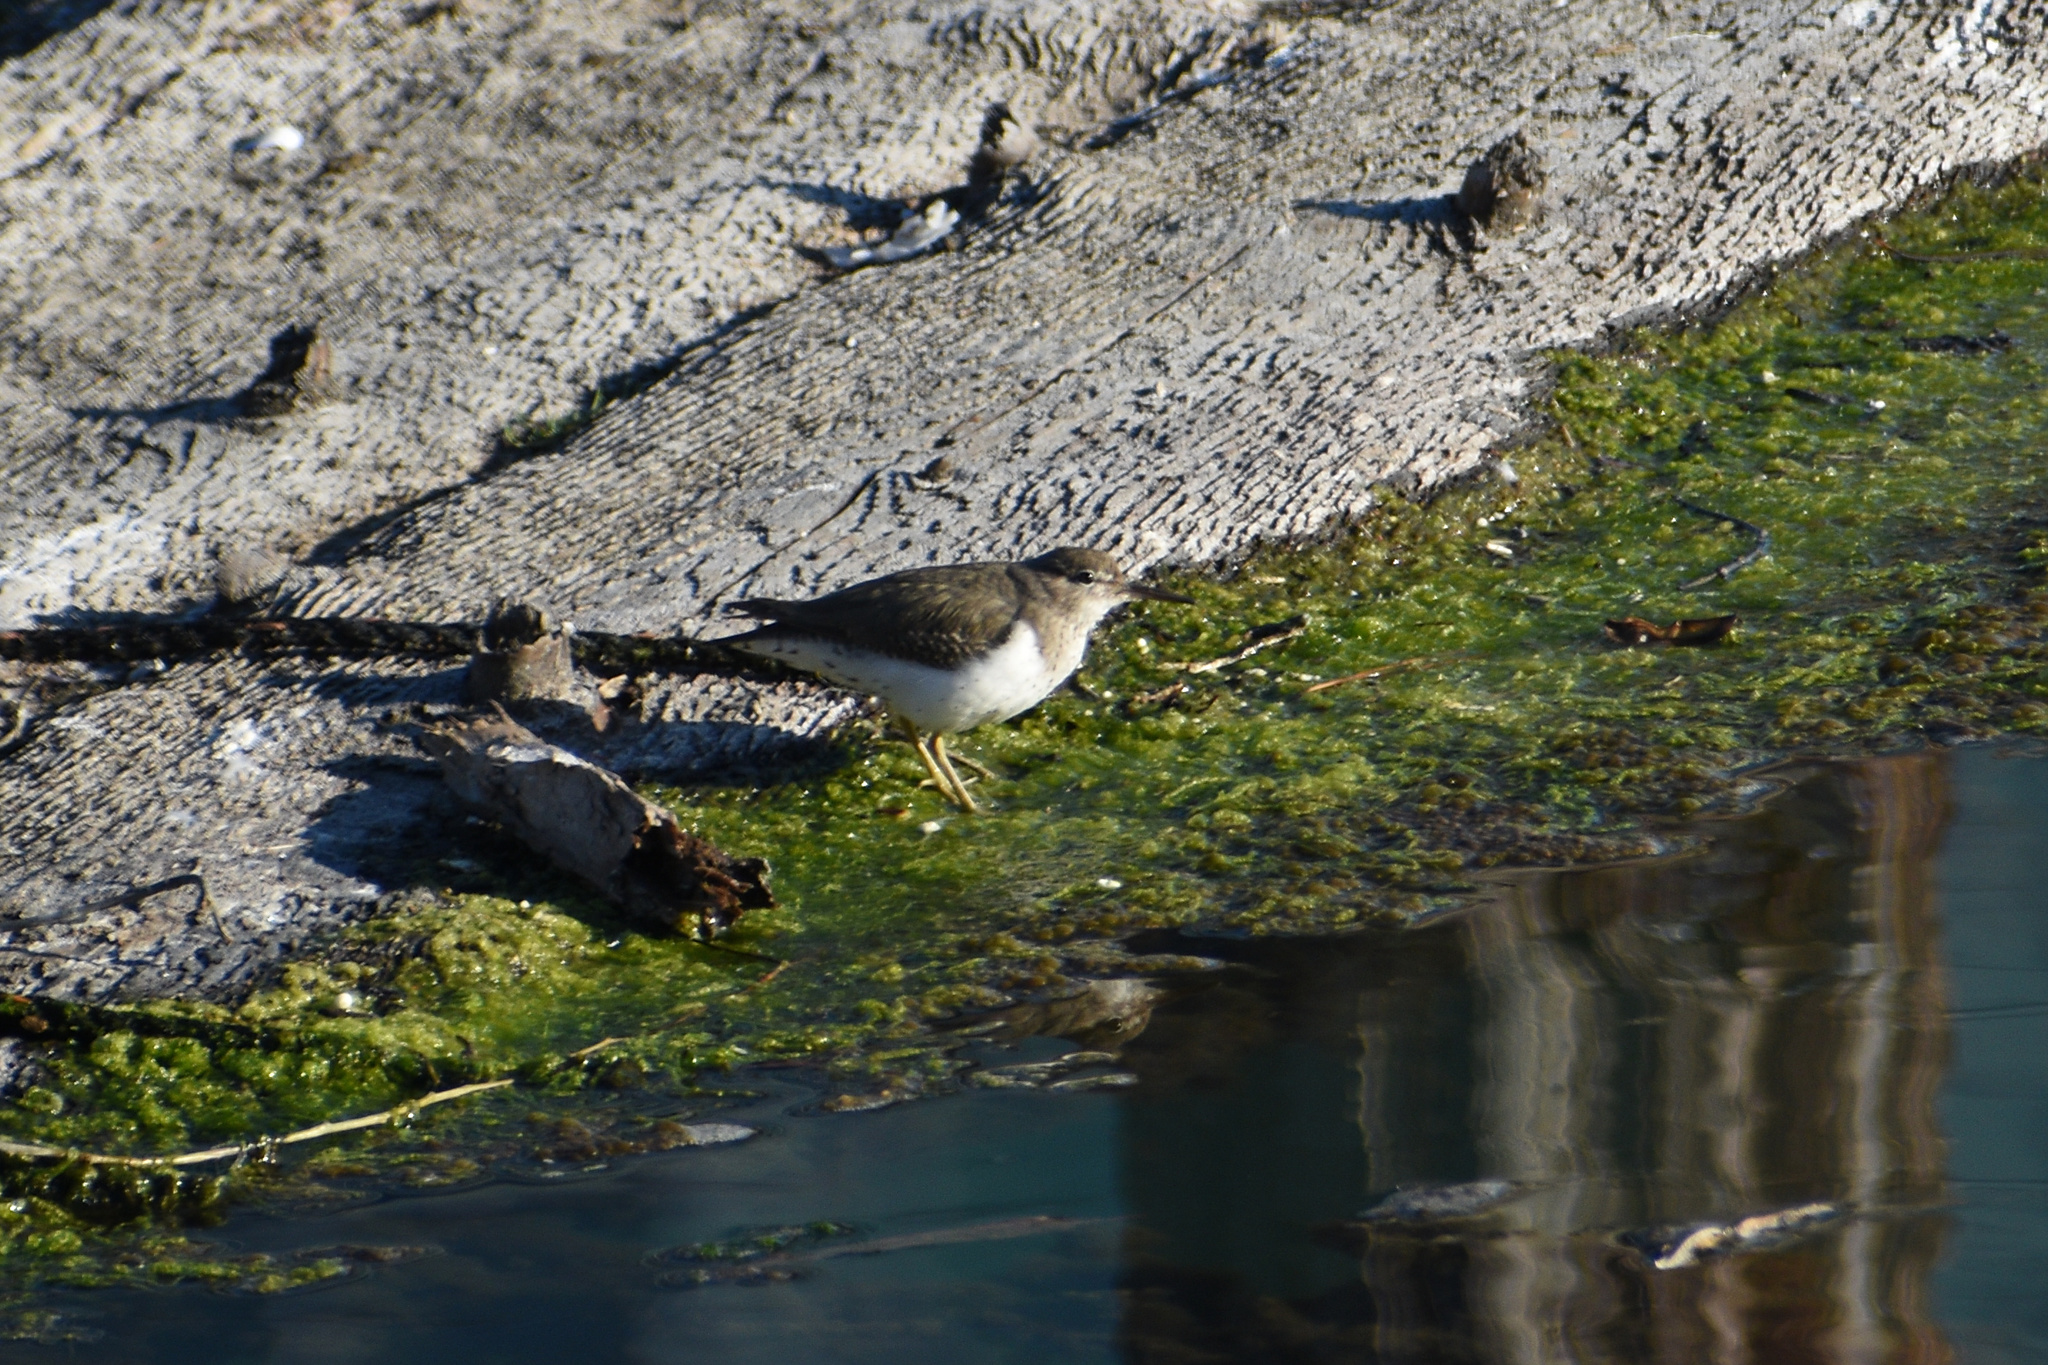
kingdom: Animalia
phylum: Chordata
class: Aves
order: Charadriiformes
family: Scolopacidae
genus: Actitis
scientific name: Actitis macularius
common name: Spotted sandpiper
